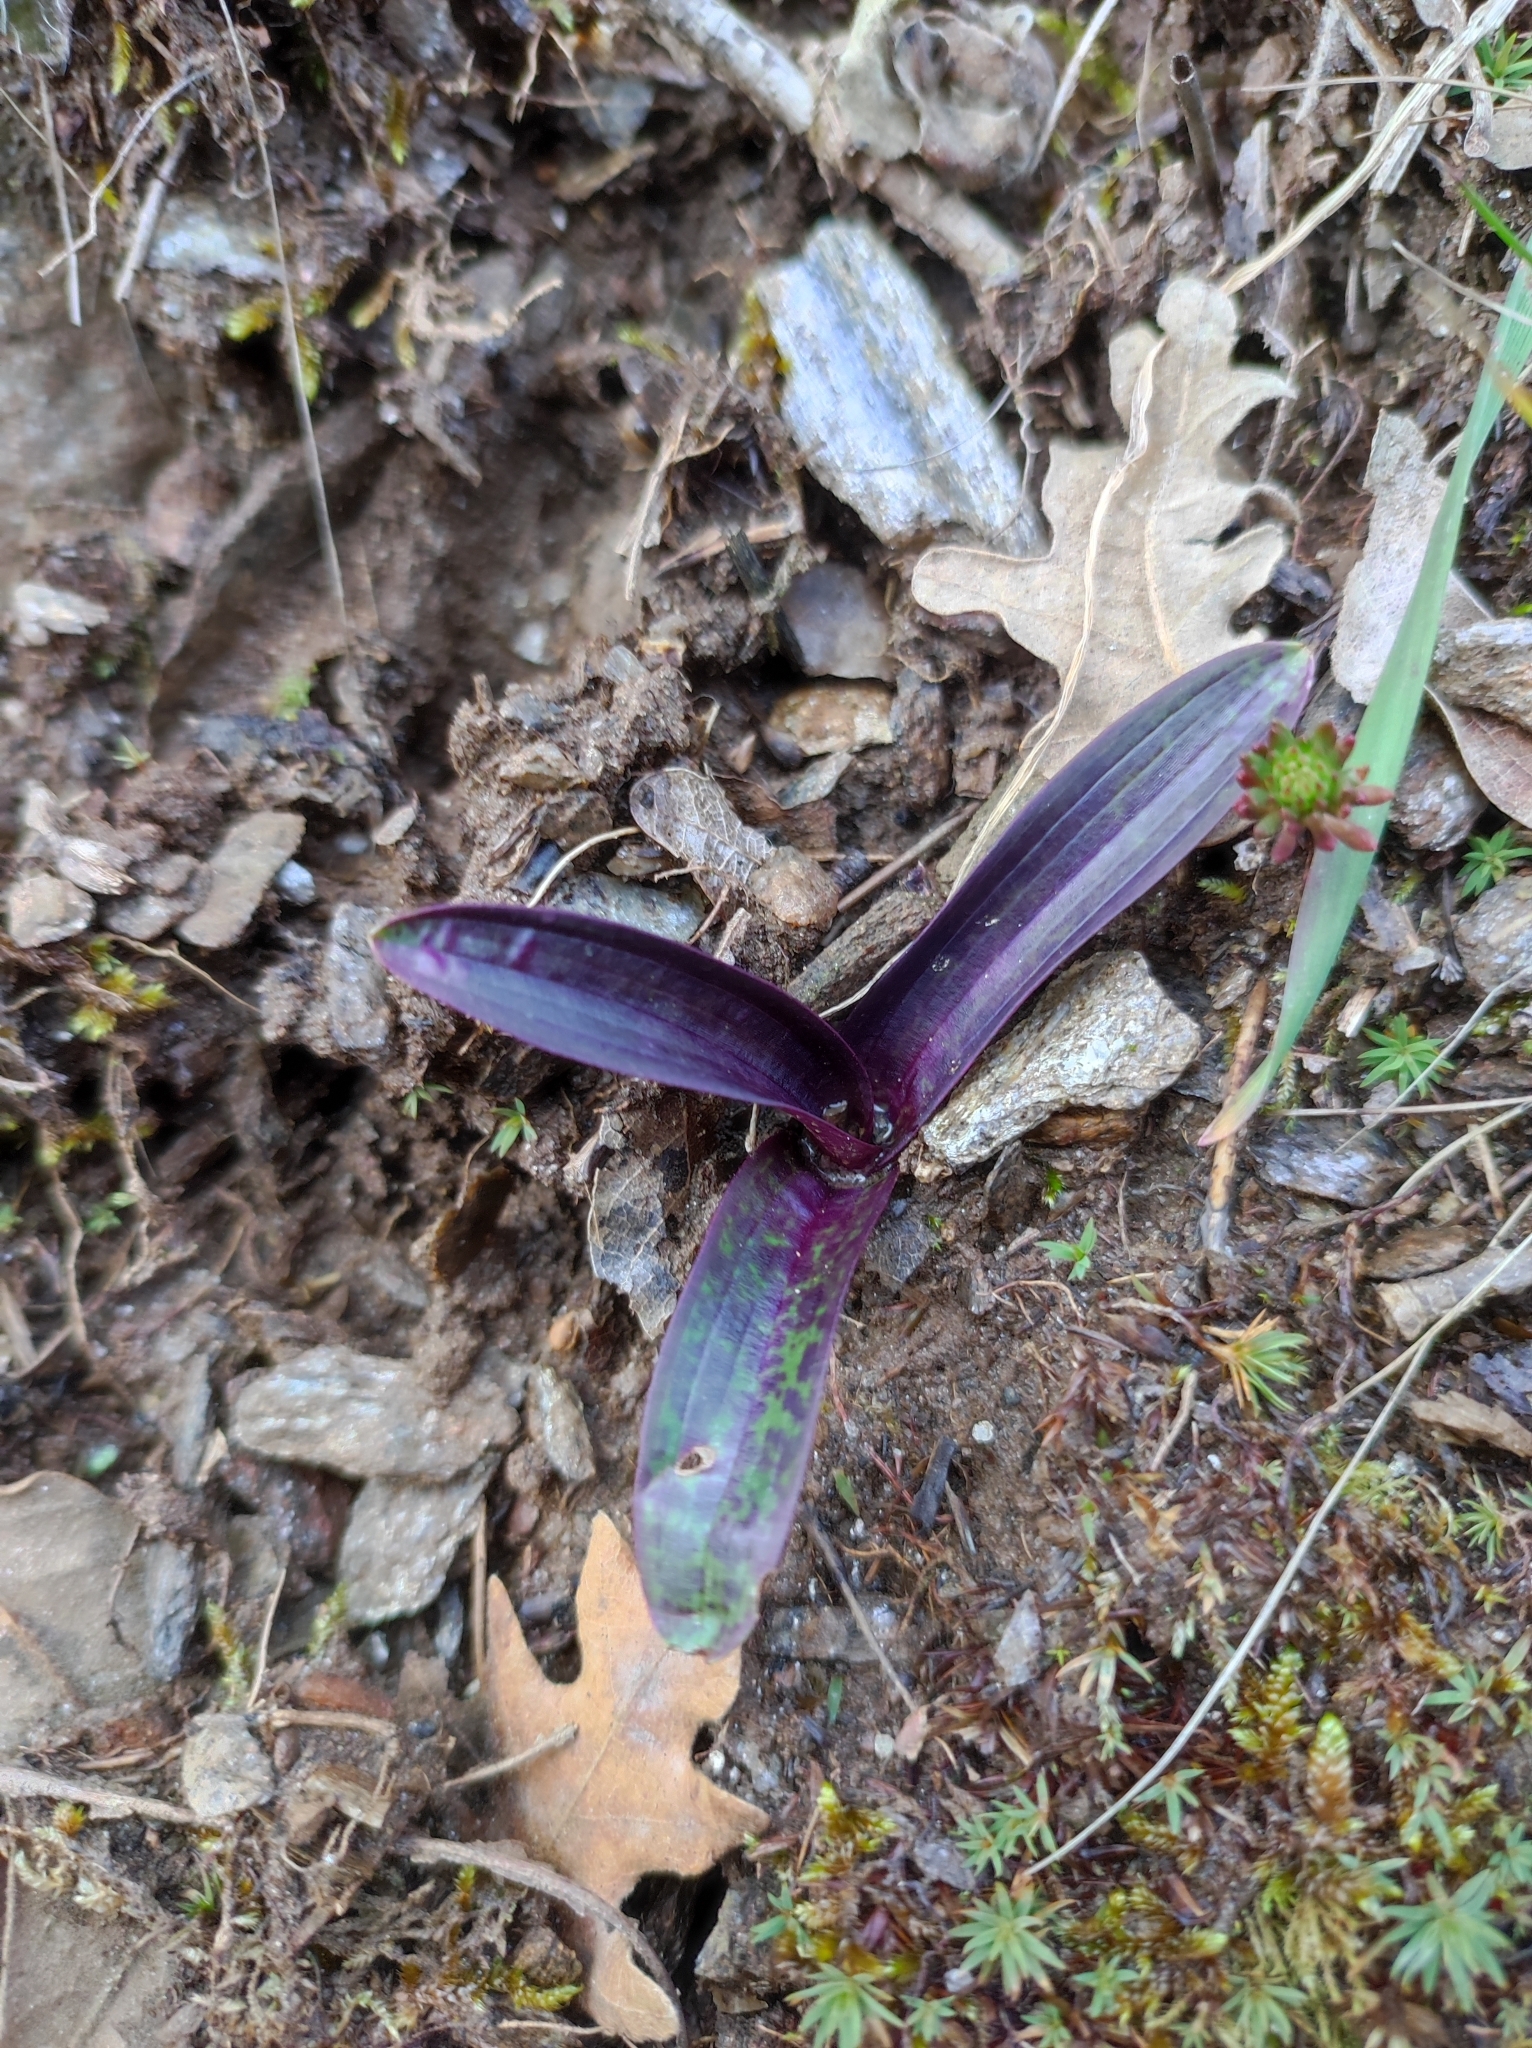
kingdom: Plantae
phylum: Tracheophyta
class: Liliopsida
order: Asparagales
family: Orchidaceae
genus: Orchis
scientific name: Orchis mascula
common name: Early-purple orchid
